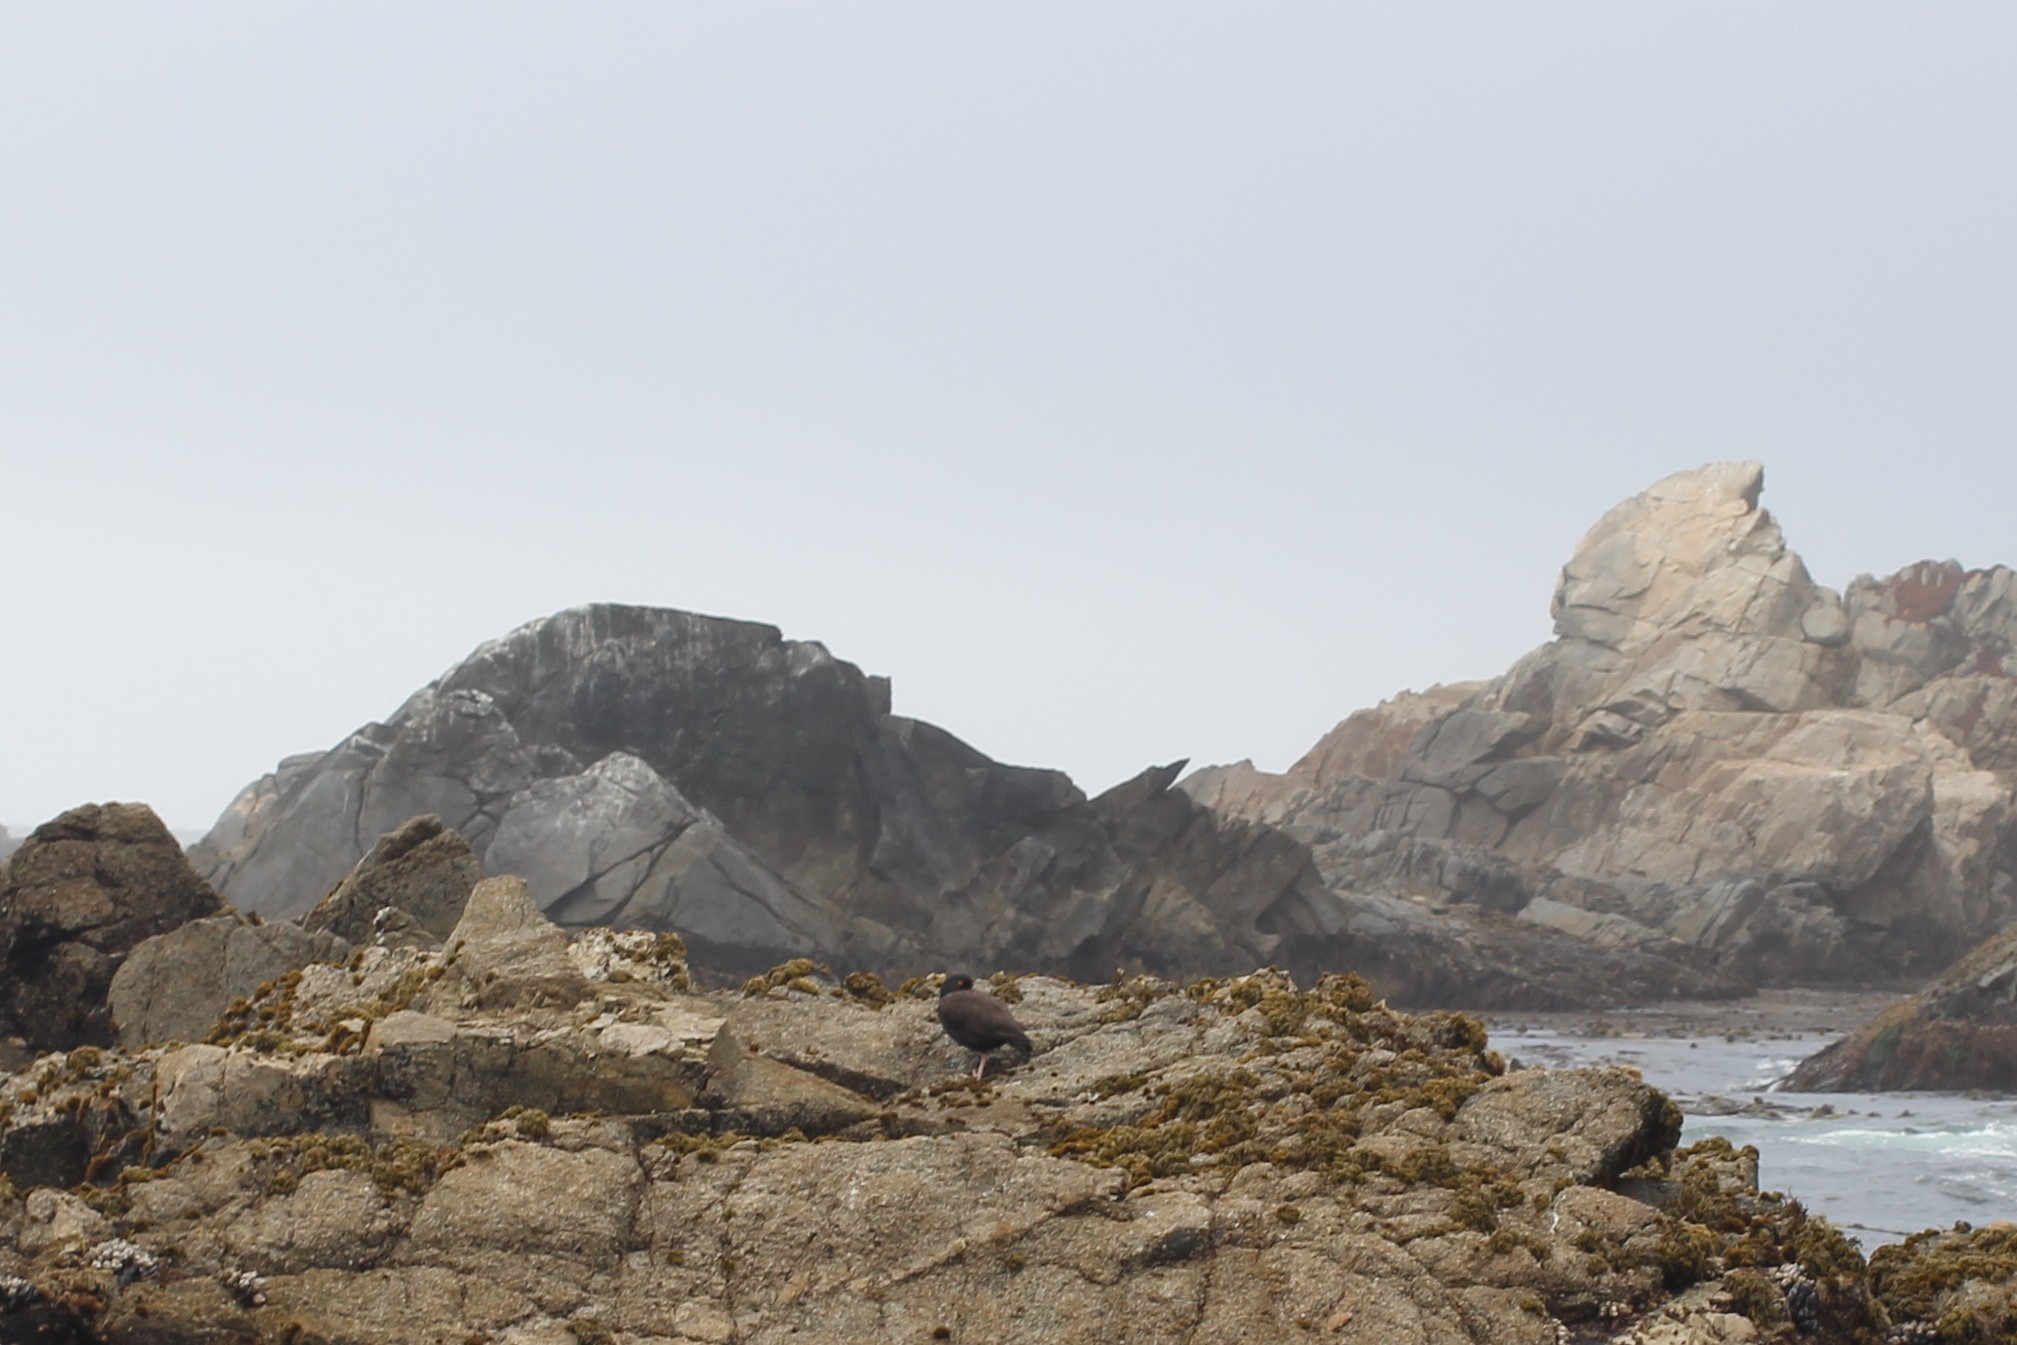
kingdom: Animalia
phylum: Chordata
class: Aves
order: Charadriiformes
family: Haematopodidae
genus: Haematopus
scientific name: Haematopus bachmani
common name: Black oystercatcher
